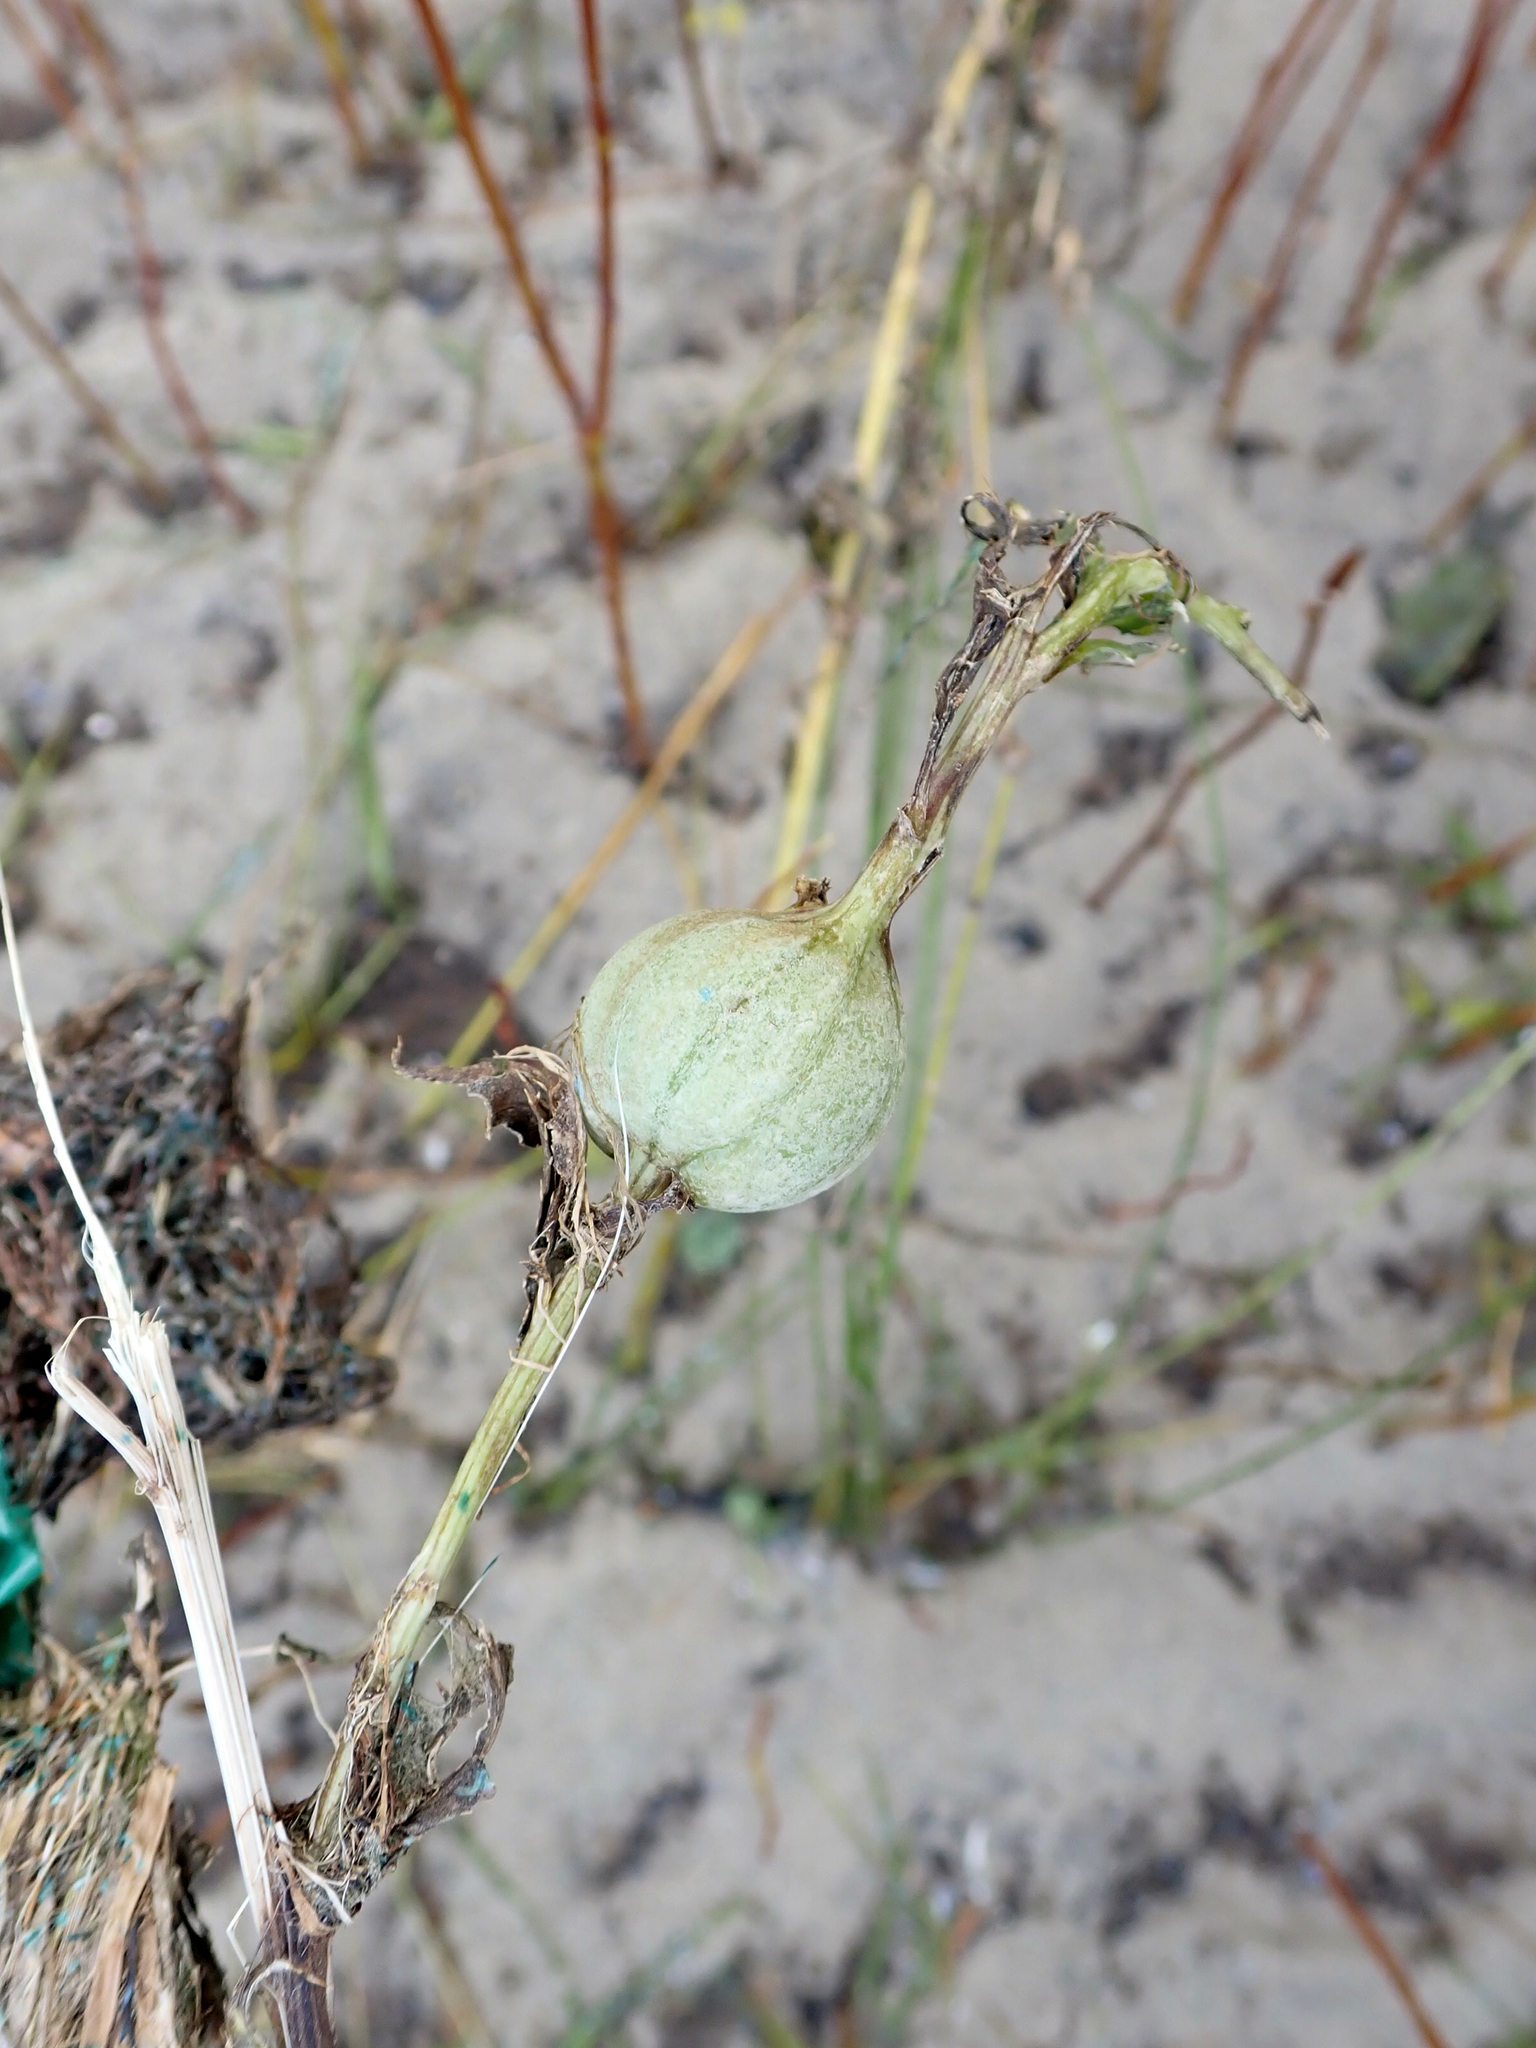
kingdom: Animalia
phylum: Arthropoda
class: Insecta
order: Diptera
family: Tephritidae
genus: Urophora
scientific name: Urophora cardui
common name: Fruit fly
